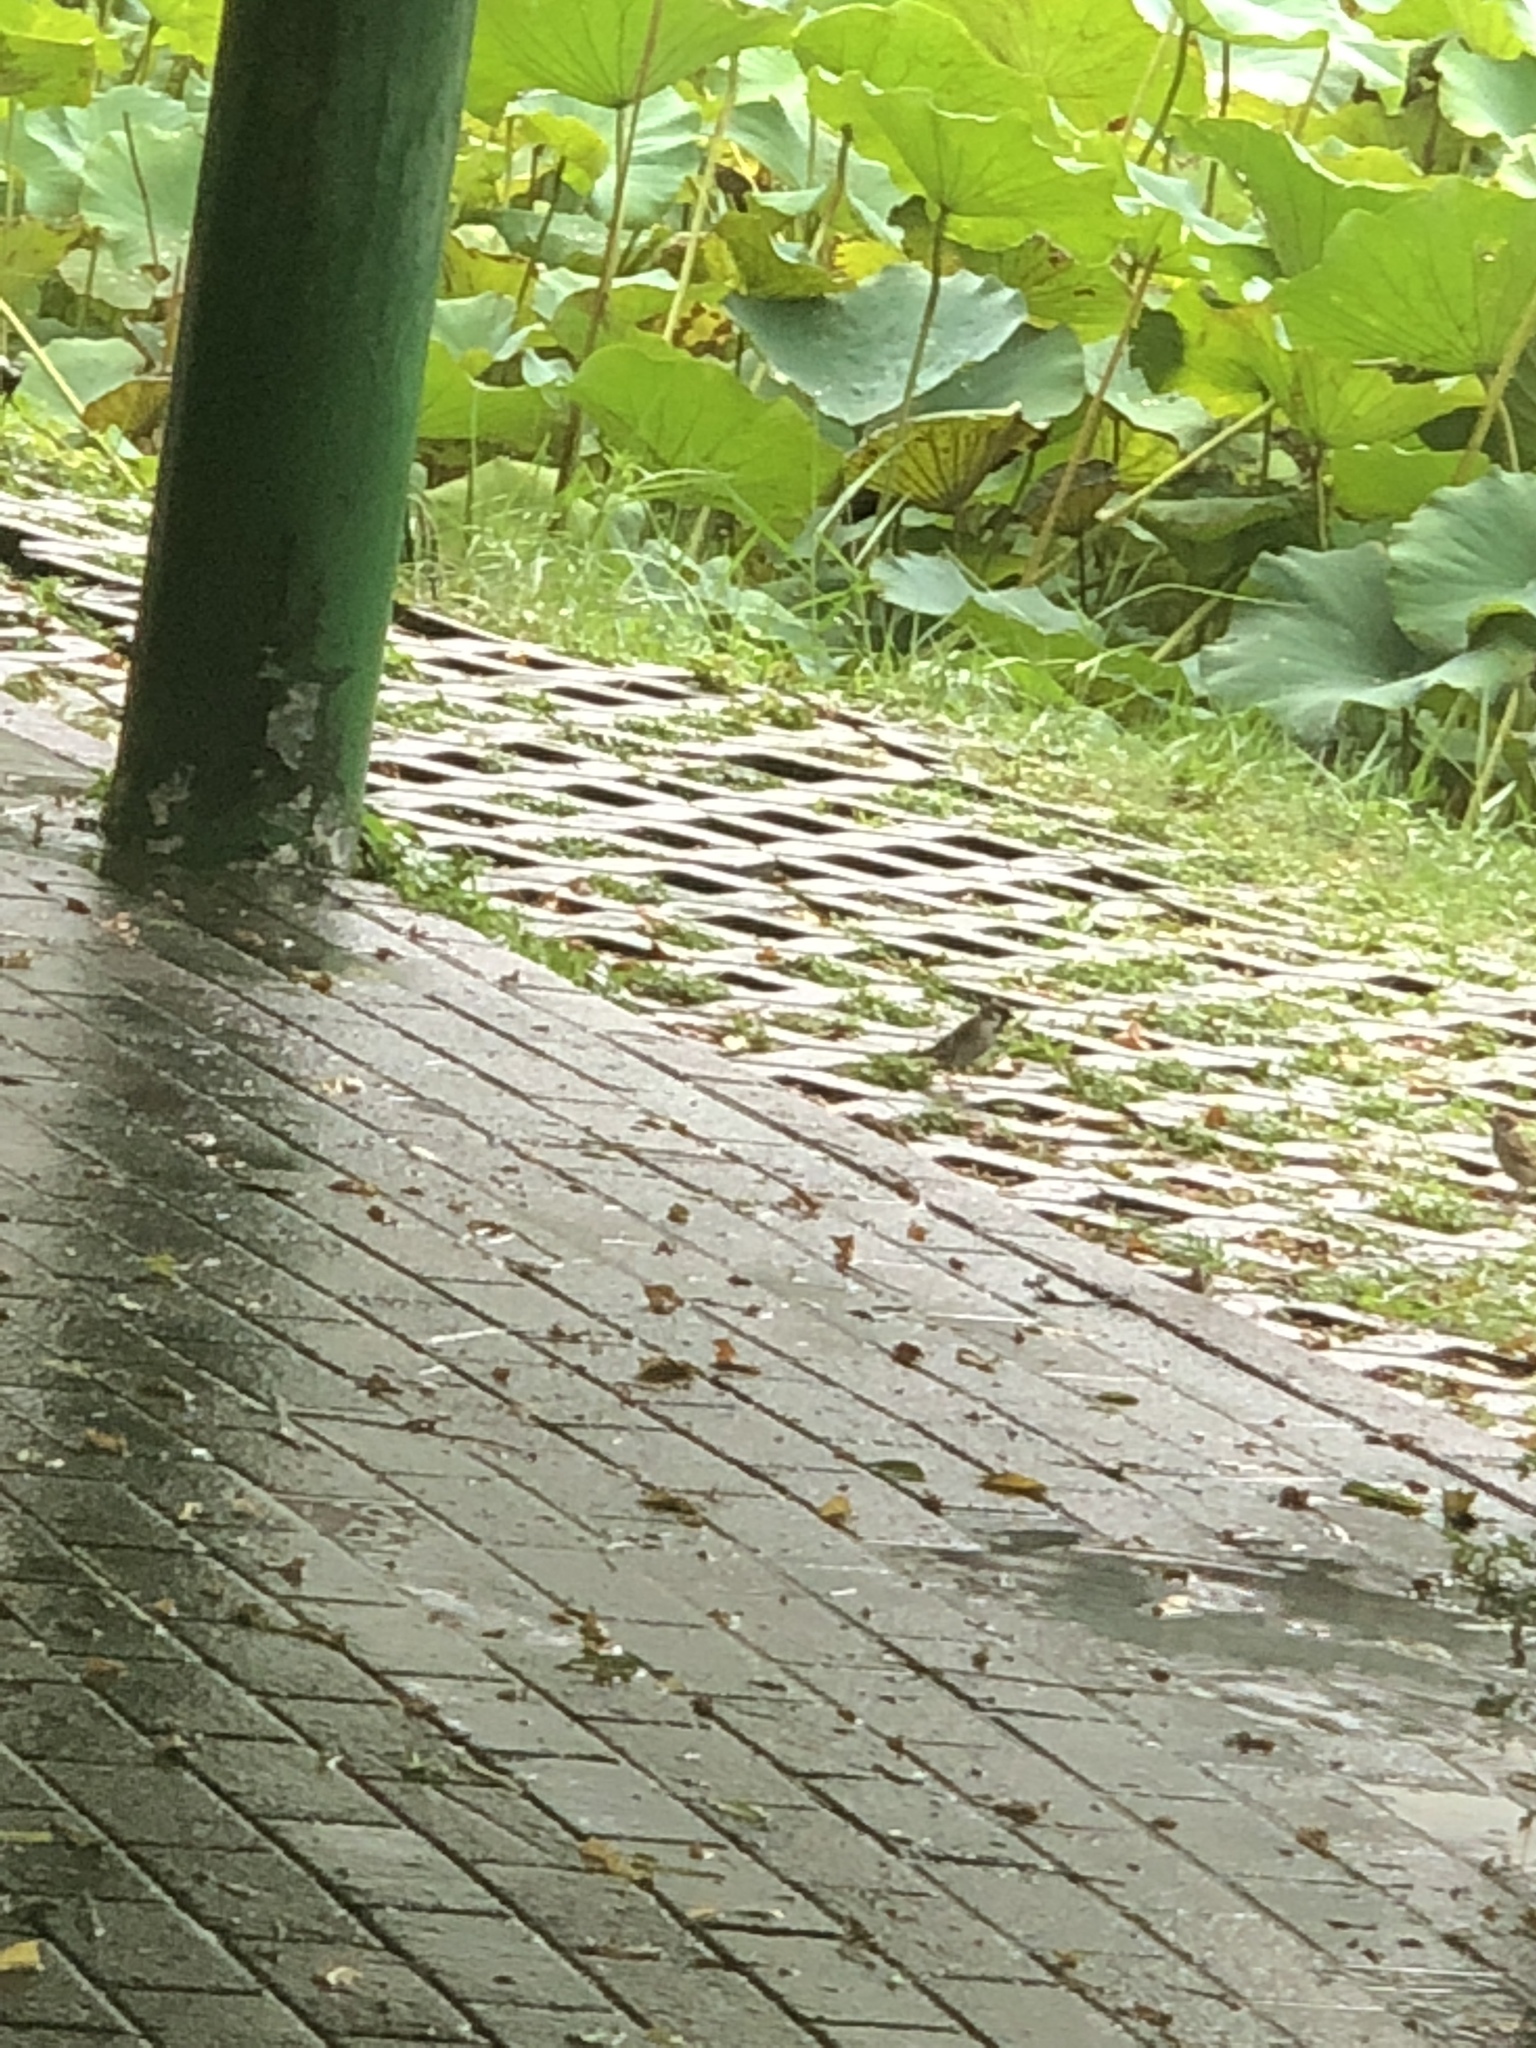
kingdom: Animalia
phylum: Chordata
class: Aves
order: Passeriformes
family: Passeridae
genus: Passer
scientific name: Passer montanus
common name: Eurasian tree sparrow
